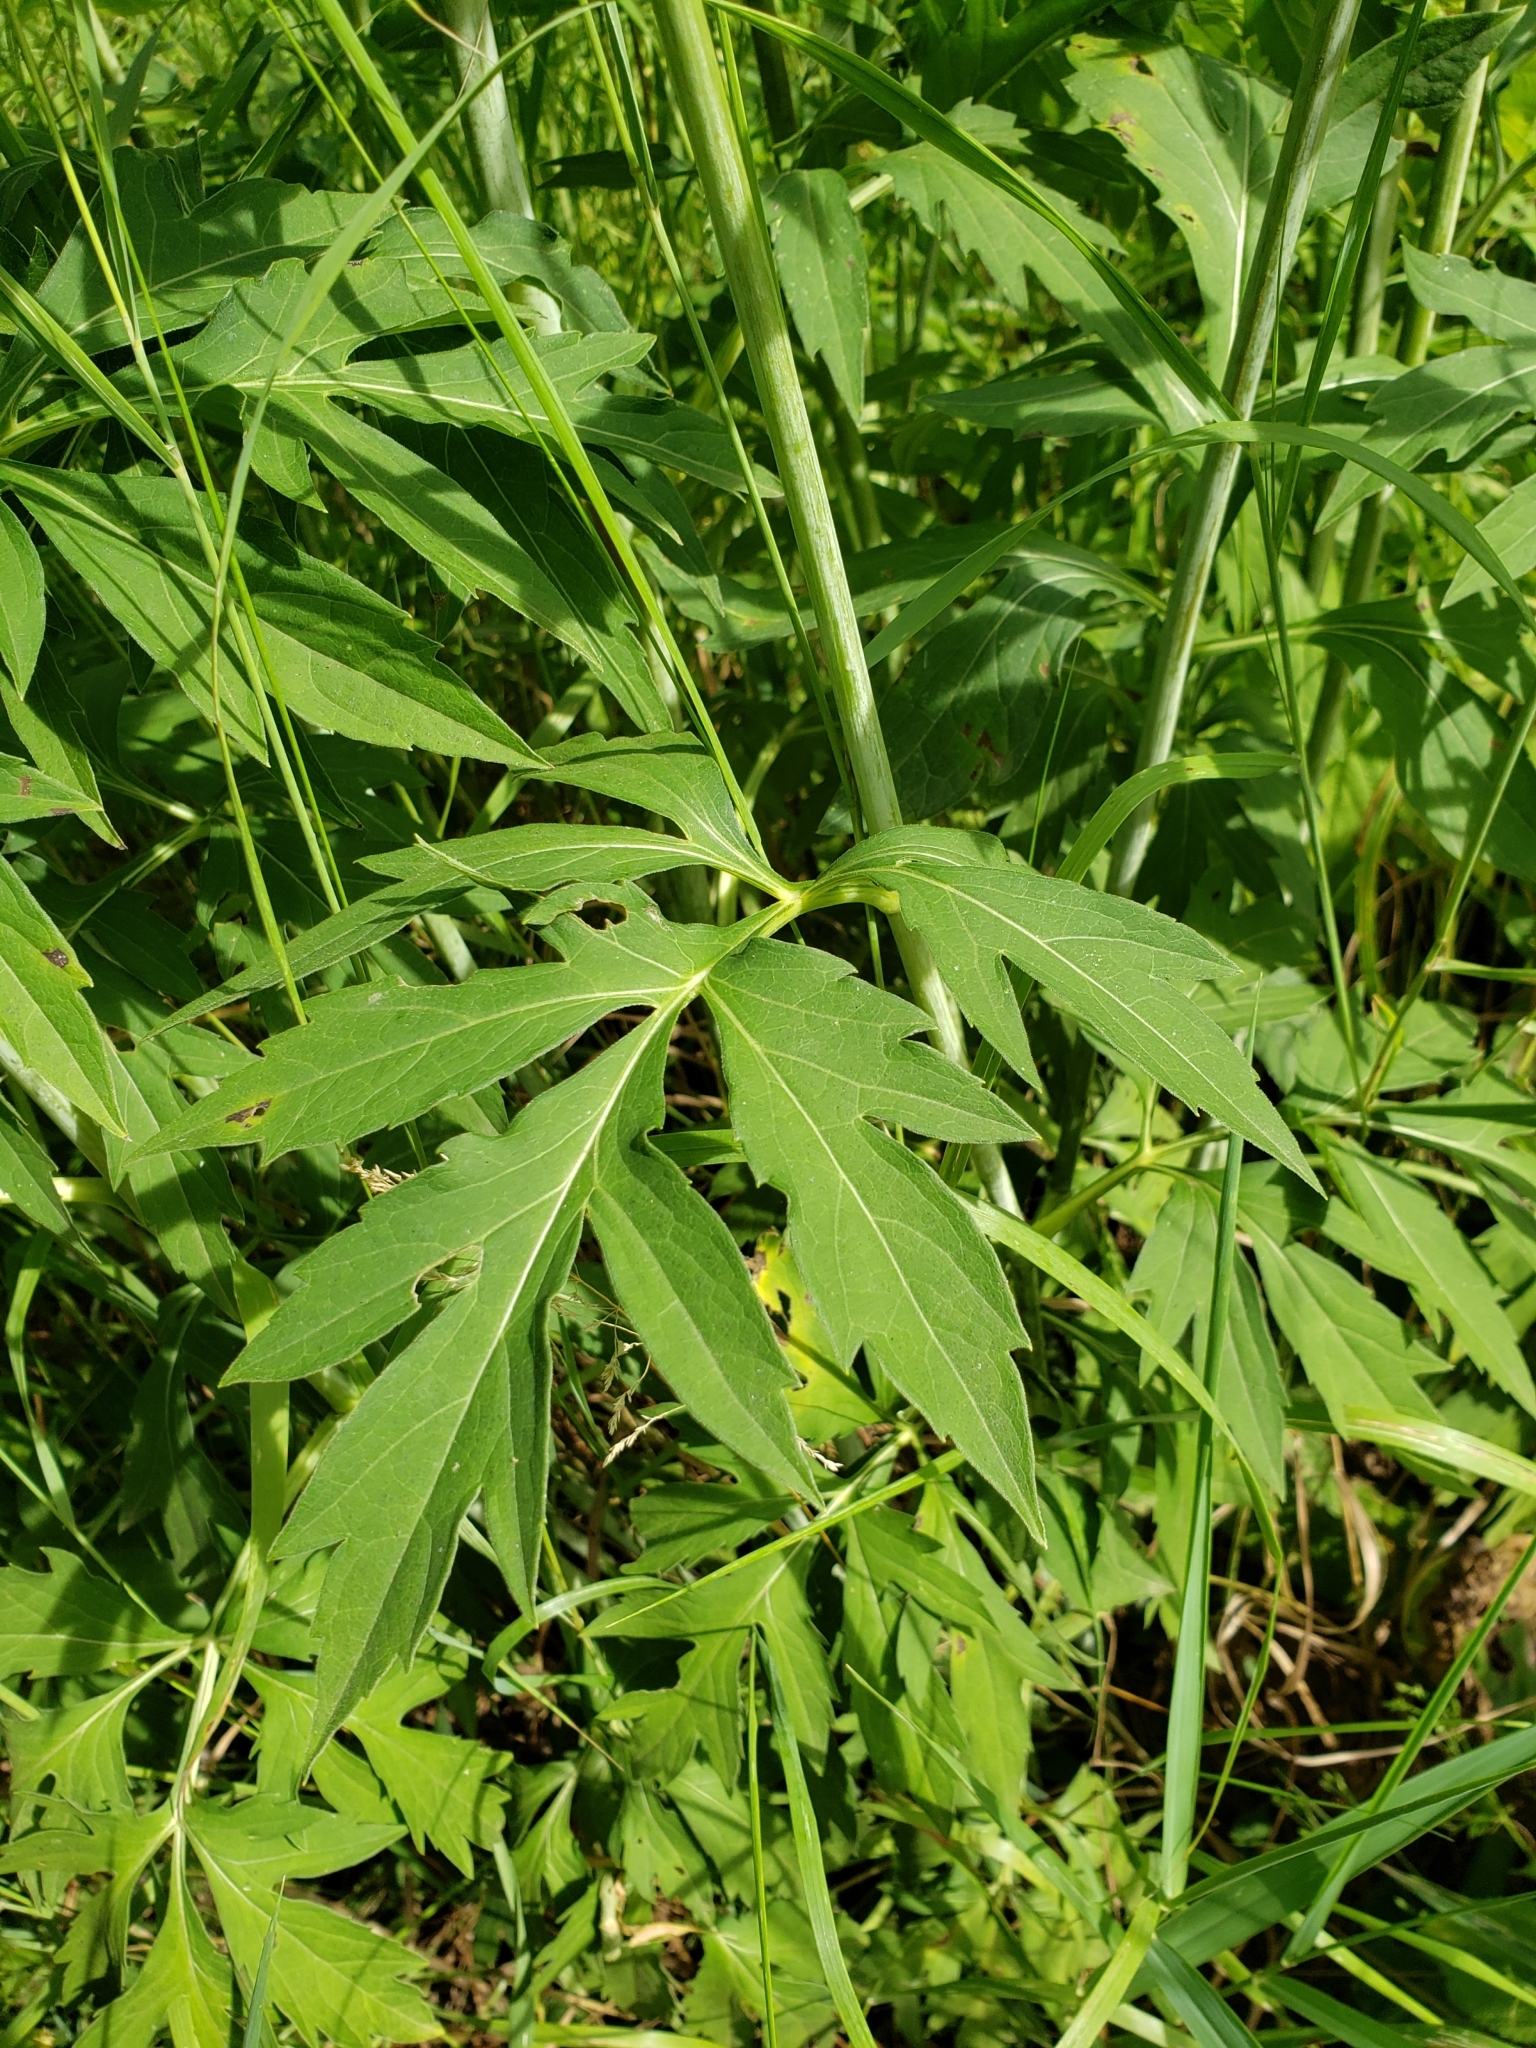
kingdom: Plantae
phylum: Tracheophyta
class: Magnoliopsida
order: Asterales
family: Asteraceae
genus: Rudbeckia
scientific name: Rudbeckia laciniata
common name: Coneflower
